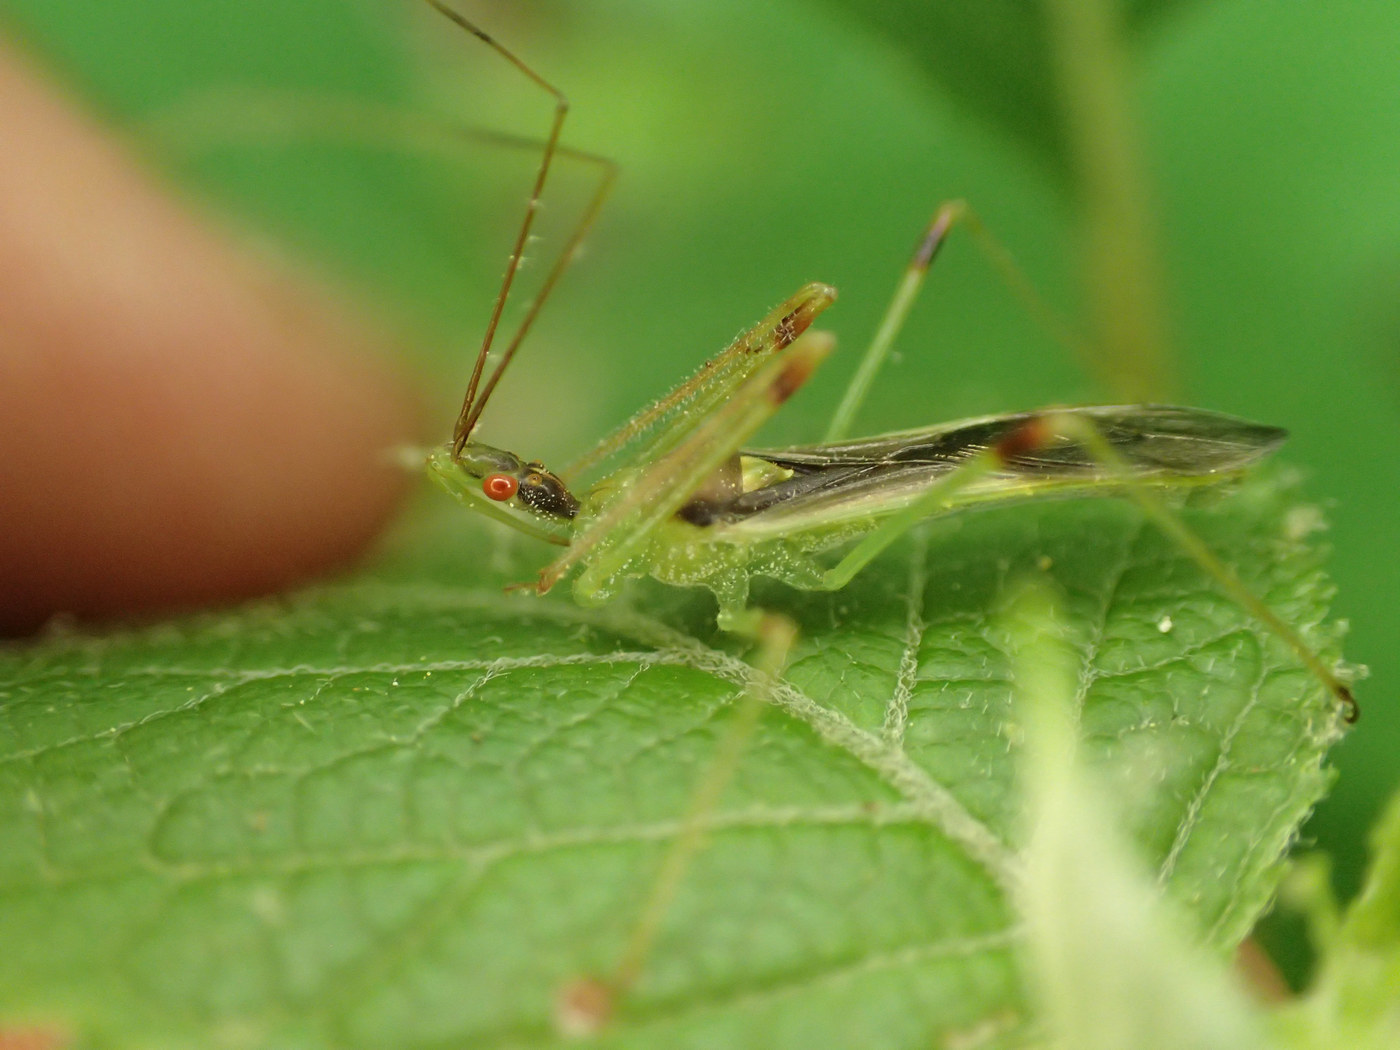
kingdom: Animalia
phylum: Arthropoda
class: Insecta
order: Hemiptera
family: Reduviidae
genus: Zelus
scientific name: Zelus luridus
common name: Pale green assassin bug
